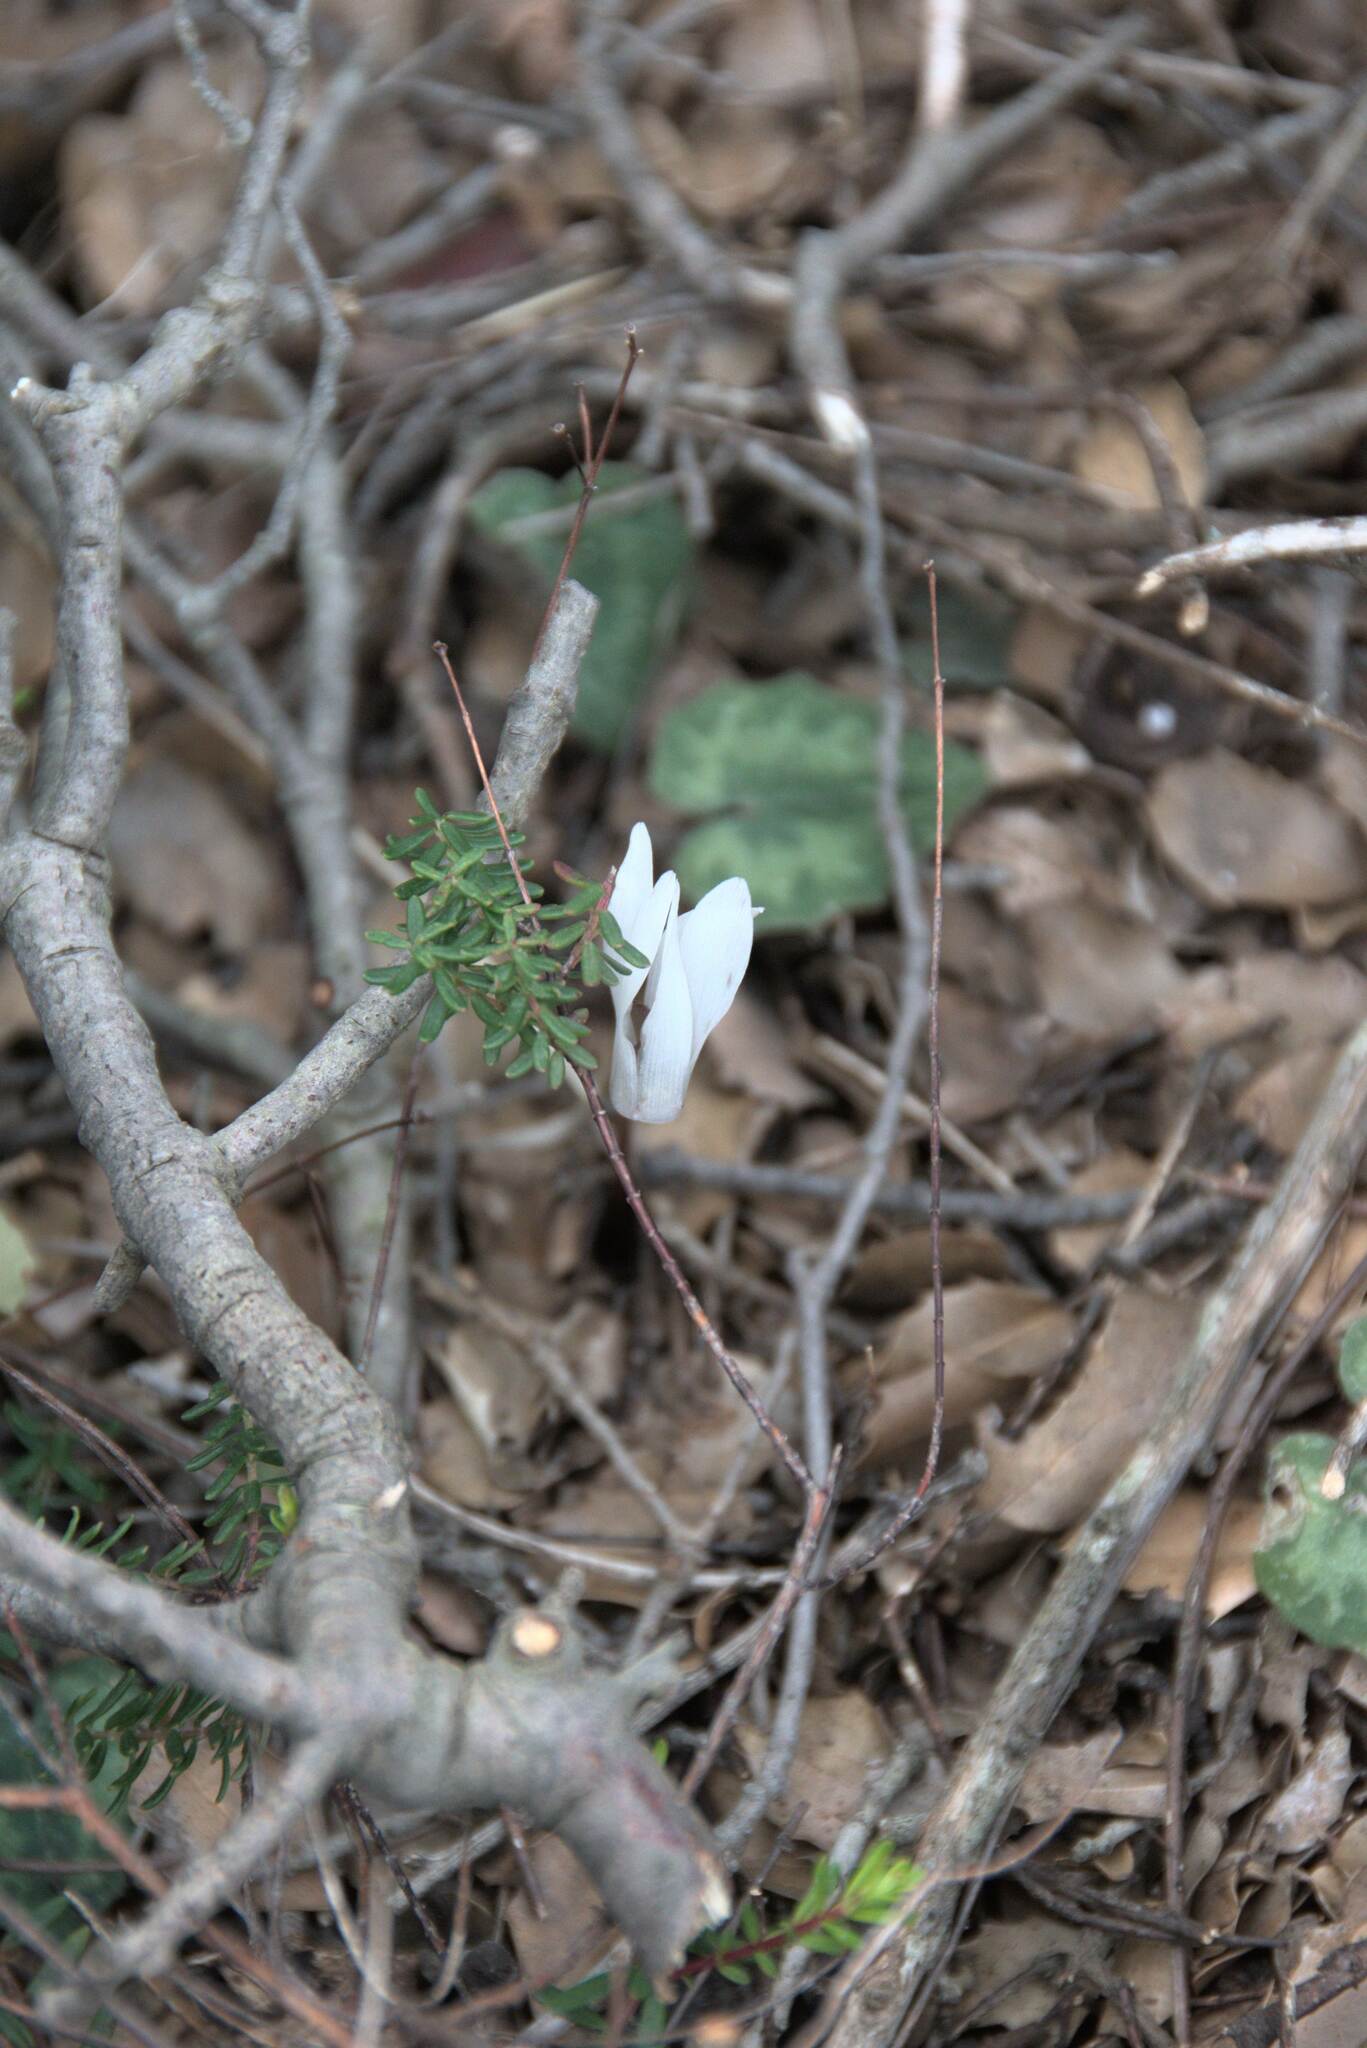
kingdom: Plantae
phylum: Tracheophyta
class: Magnoliopsida
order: Ericales
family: Primulaceae
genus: Cyclamen
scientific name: Cyclamen creticum
